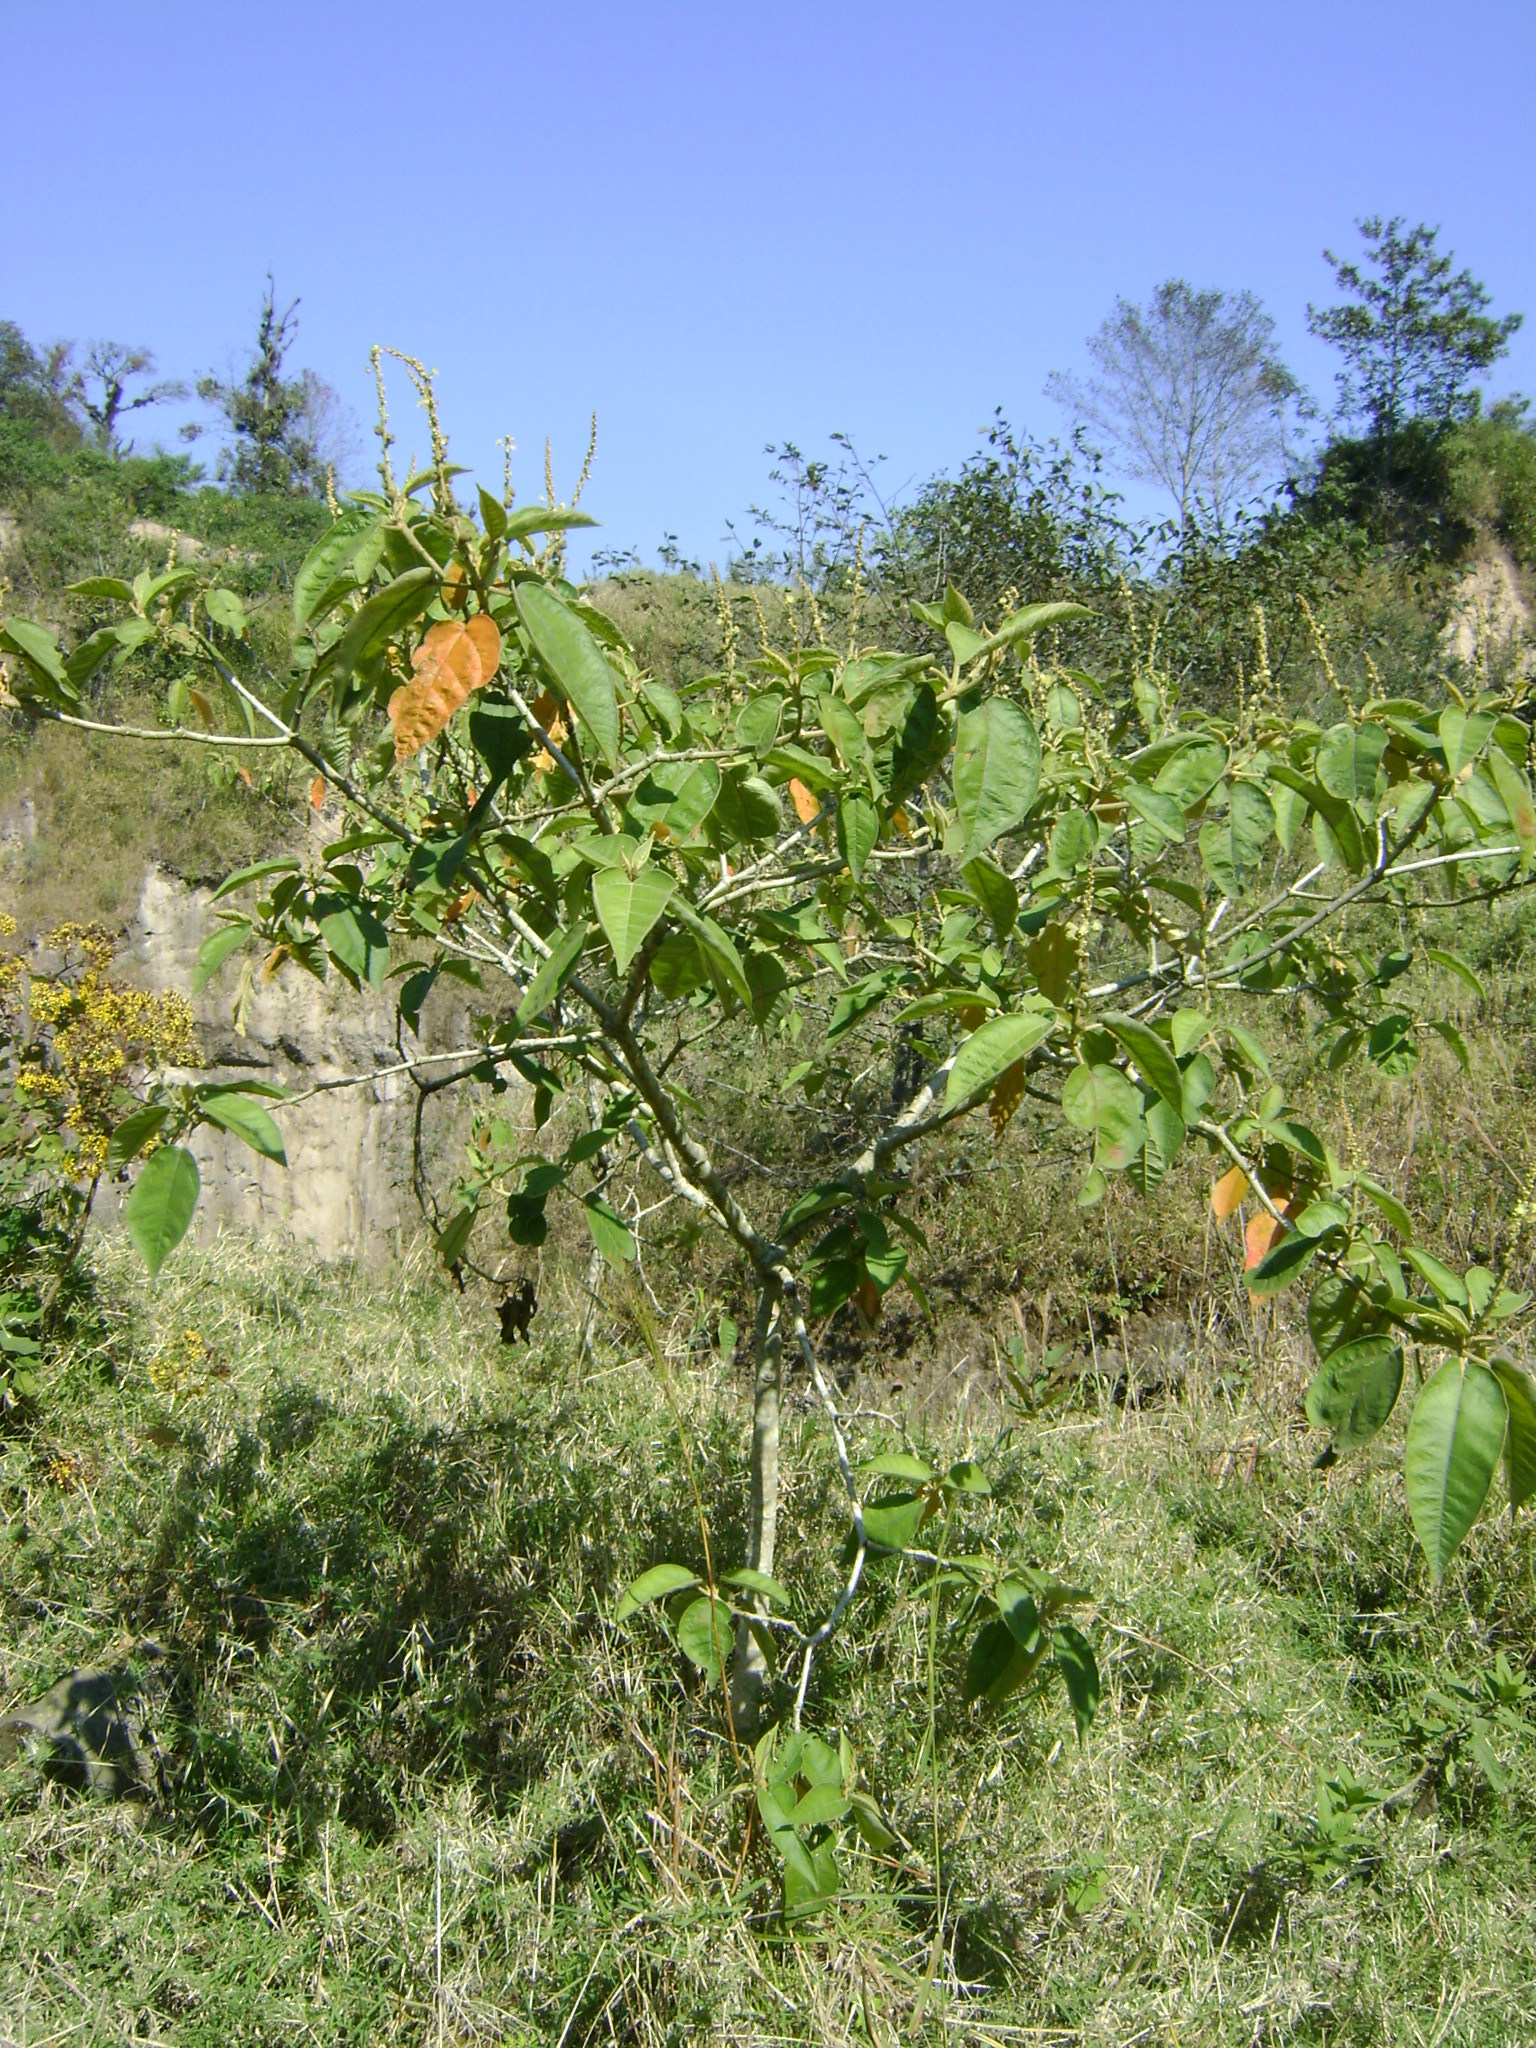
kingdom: Plantae
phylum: Tracheophyta
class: Magnoliopsida
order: Malpighiales
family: Euphorbiaceae
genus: Croton
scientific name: Croton xalapensis
